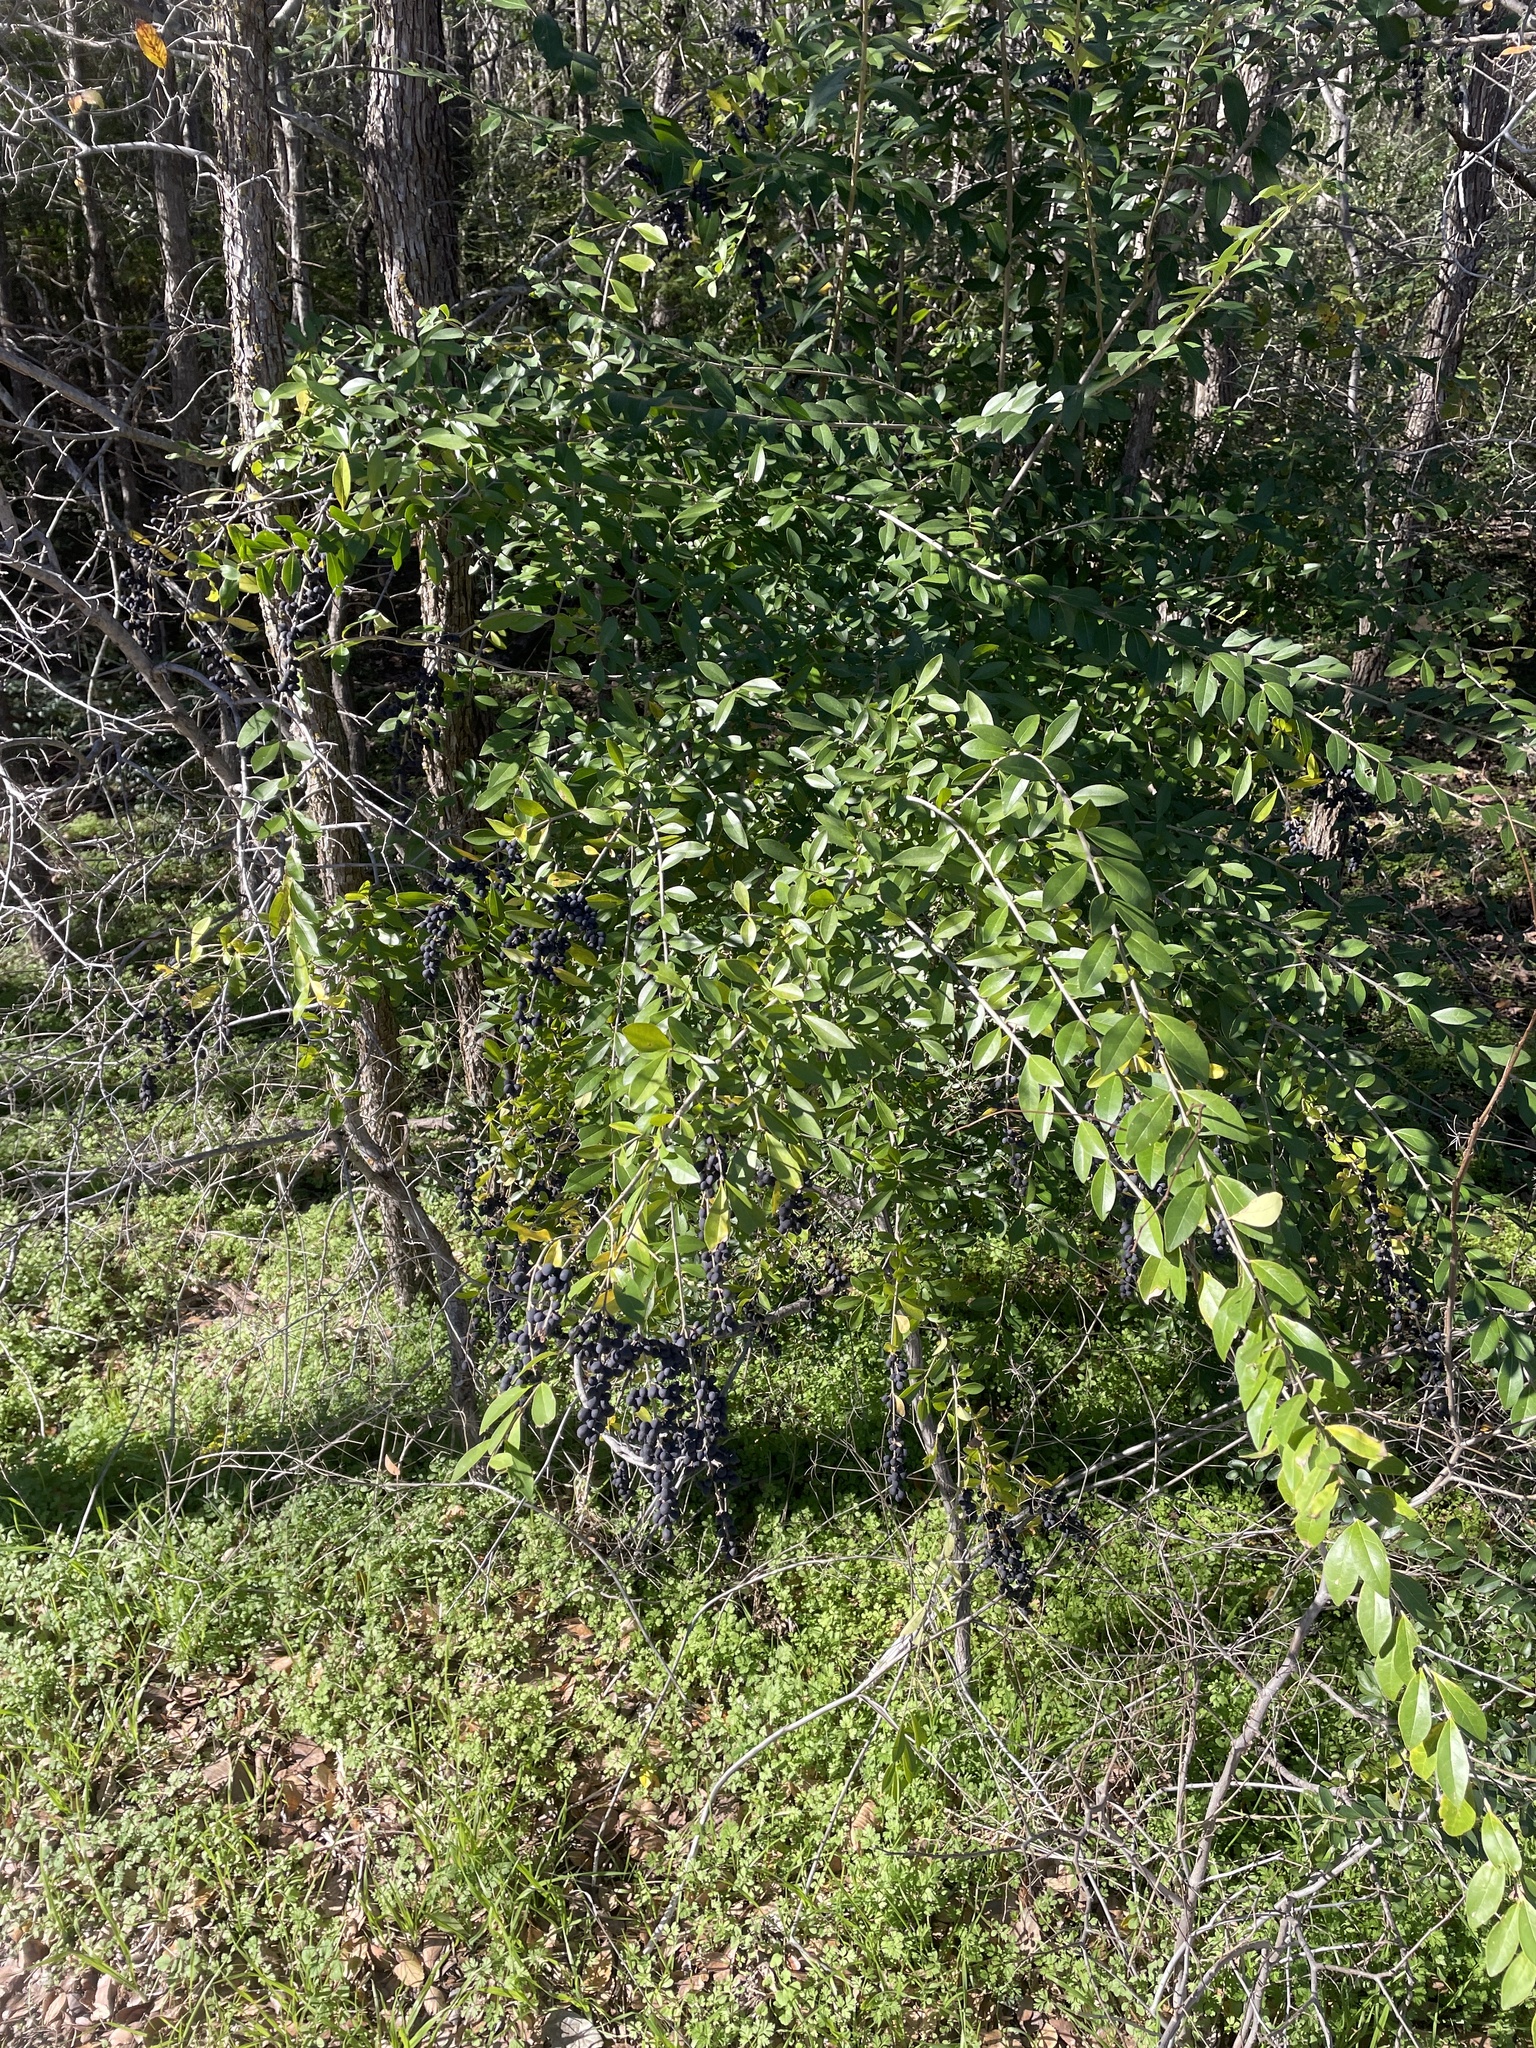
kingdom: Plantae
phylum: Tracheophyta
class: Magnoliopsida
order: Lamiales
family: Oleaceae
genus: Ligustrum
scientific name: Ligustrum quihoui
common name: Waxyleaf privet
